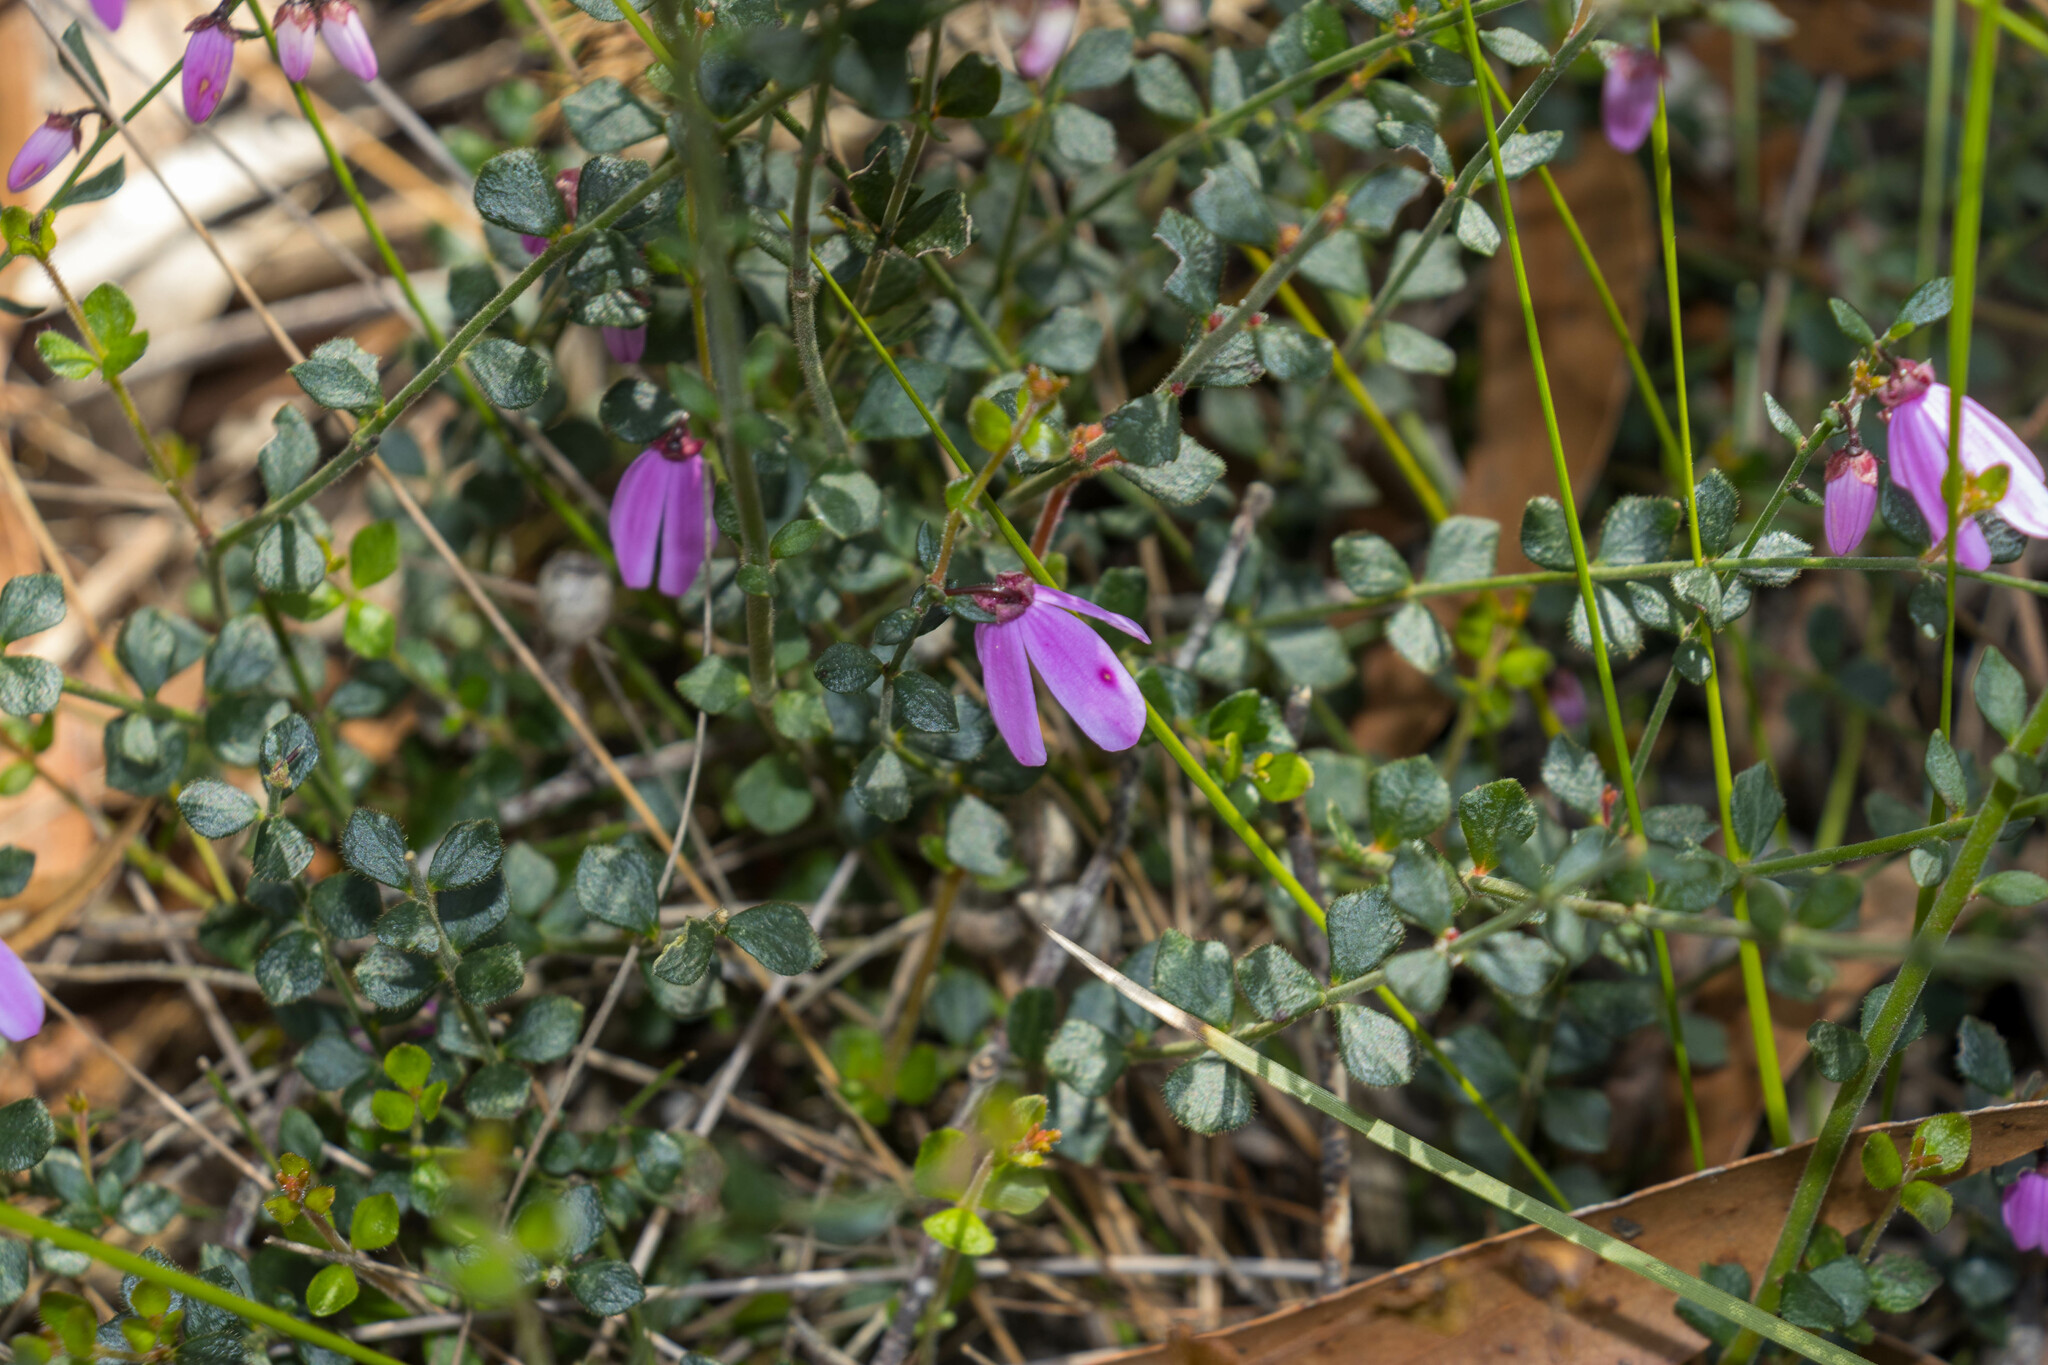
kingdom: Plantae
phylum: Tracheophyta
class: Magnoliopsida
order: Oxalidales
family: Elaeocarpaceae
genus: Tetratheca
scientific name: Tetratheca ciliata
